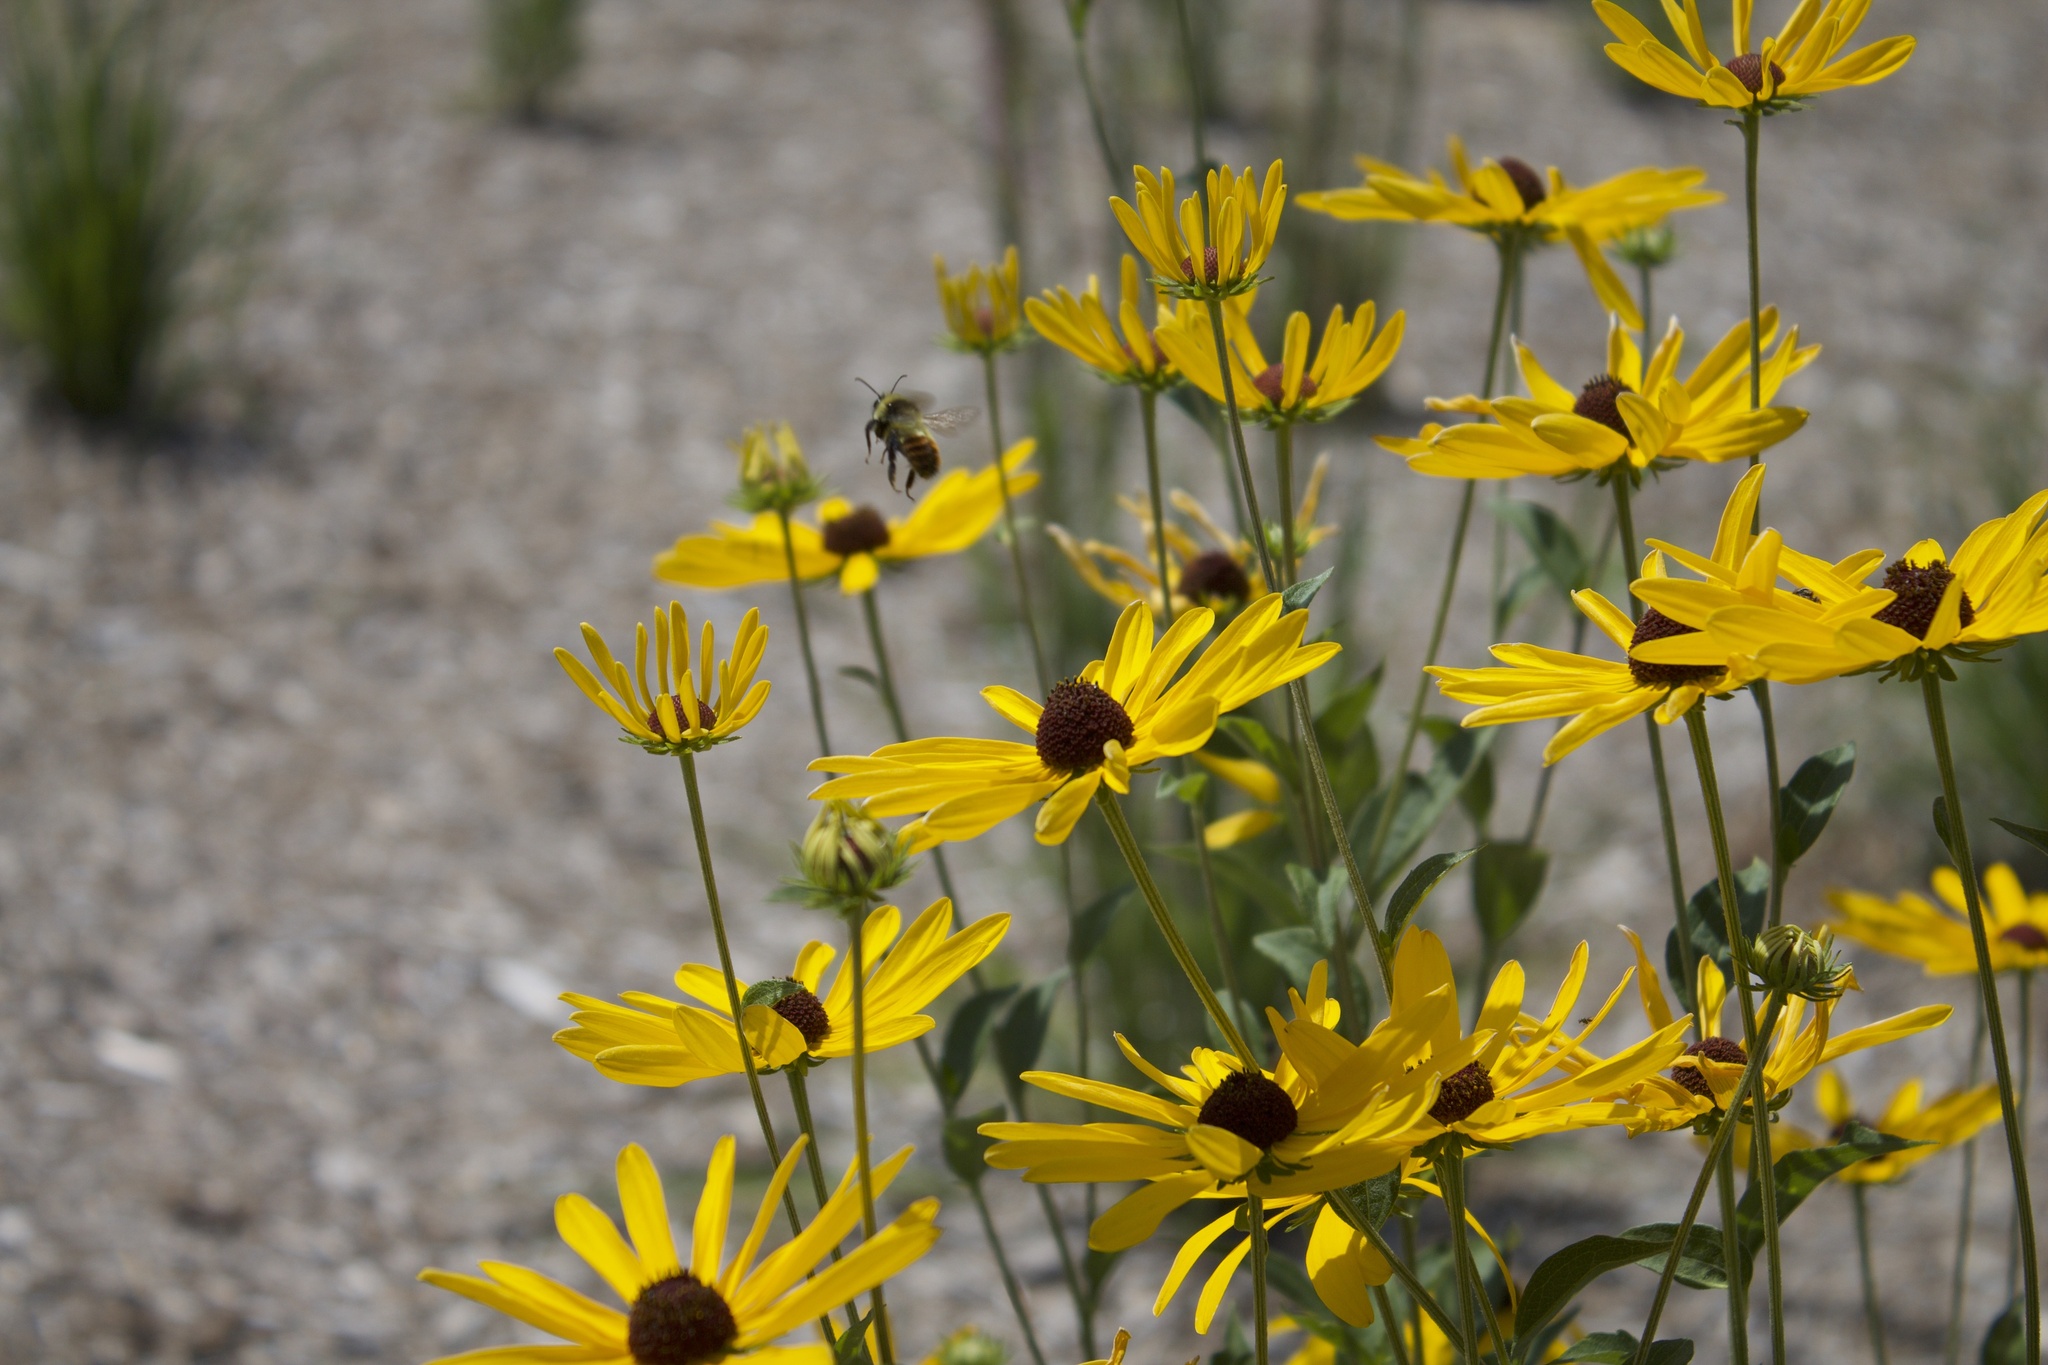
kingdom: Animalia
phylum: Arthropoda
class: Insecta
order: Hymenoptera
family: Apidae
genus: Bombus
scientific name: Bombus rufocinctus
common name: Red-belted bumble bee
